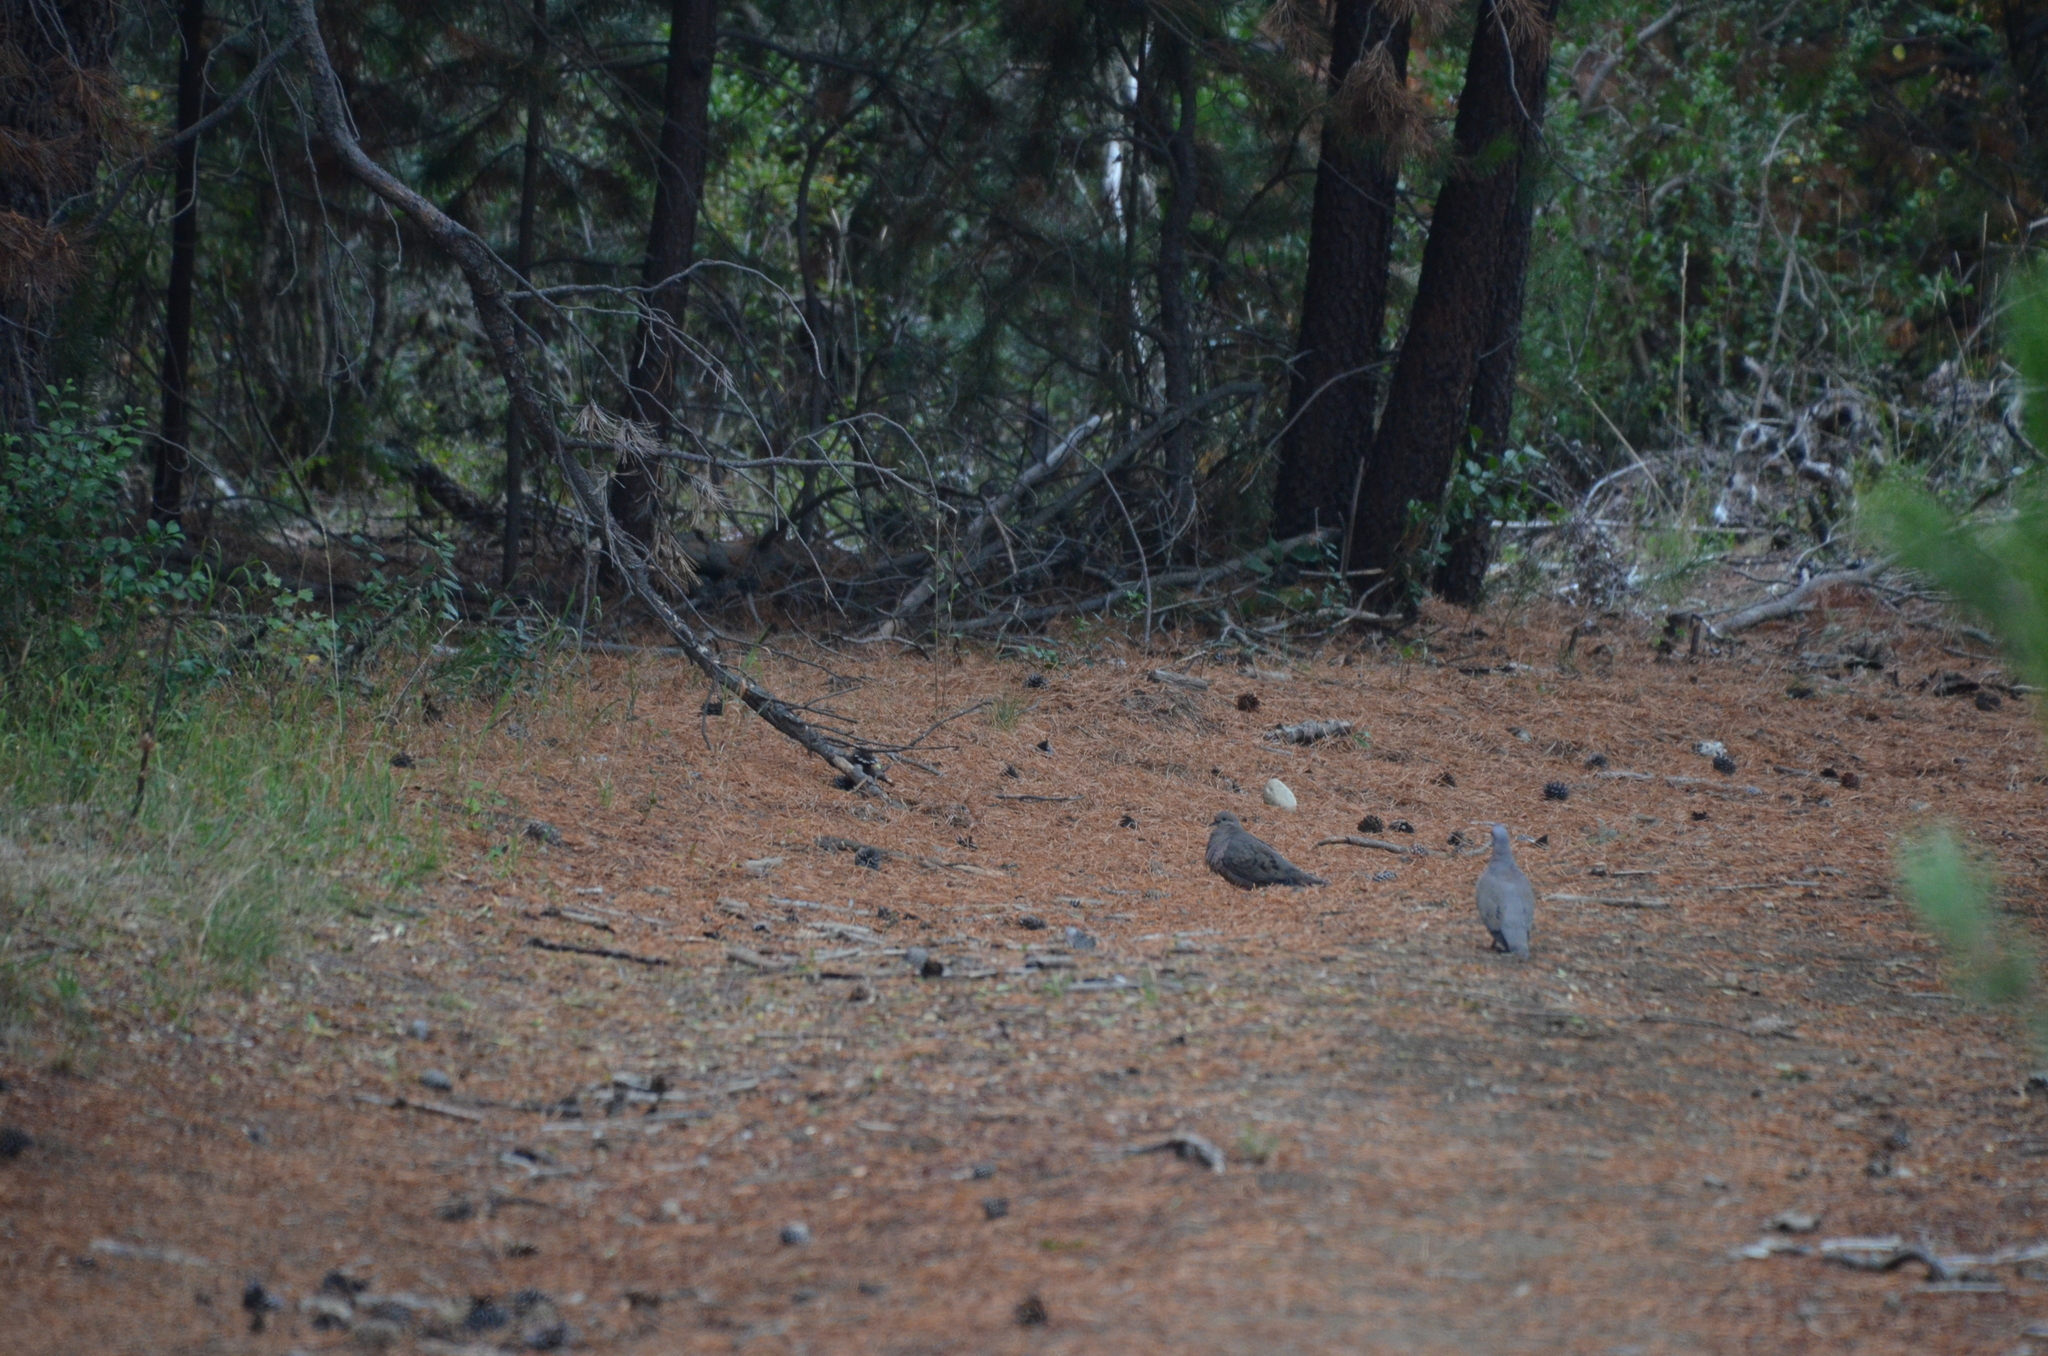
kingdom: Animalia
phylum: Chordata
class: Aves
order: Columbiformes
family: Columbidae
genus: Zenaida
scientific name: Zenaida auriculata
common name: Eared dove
